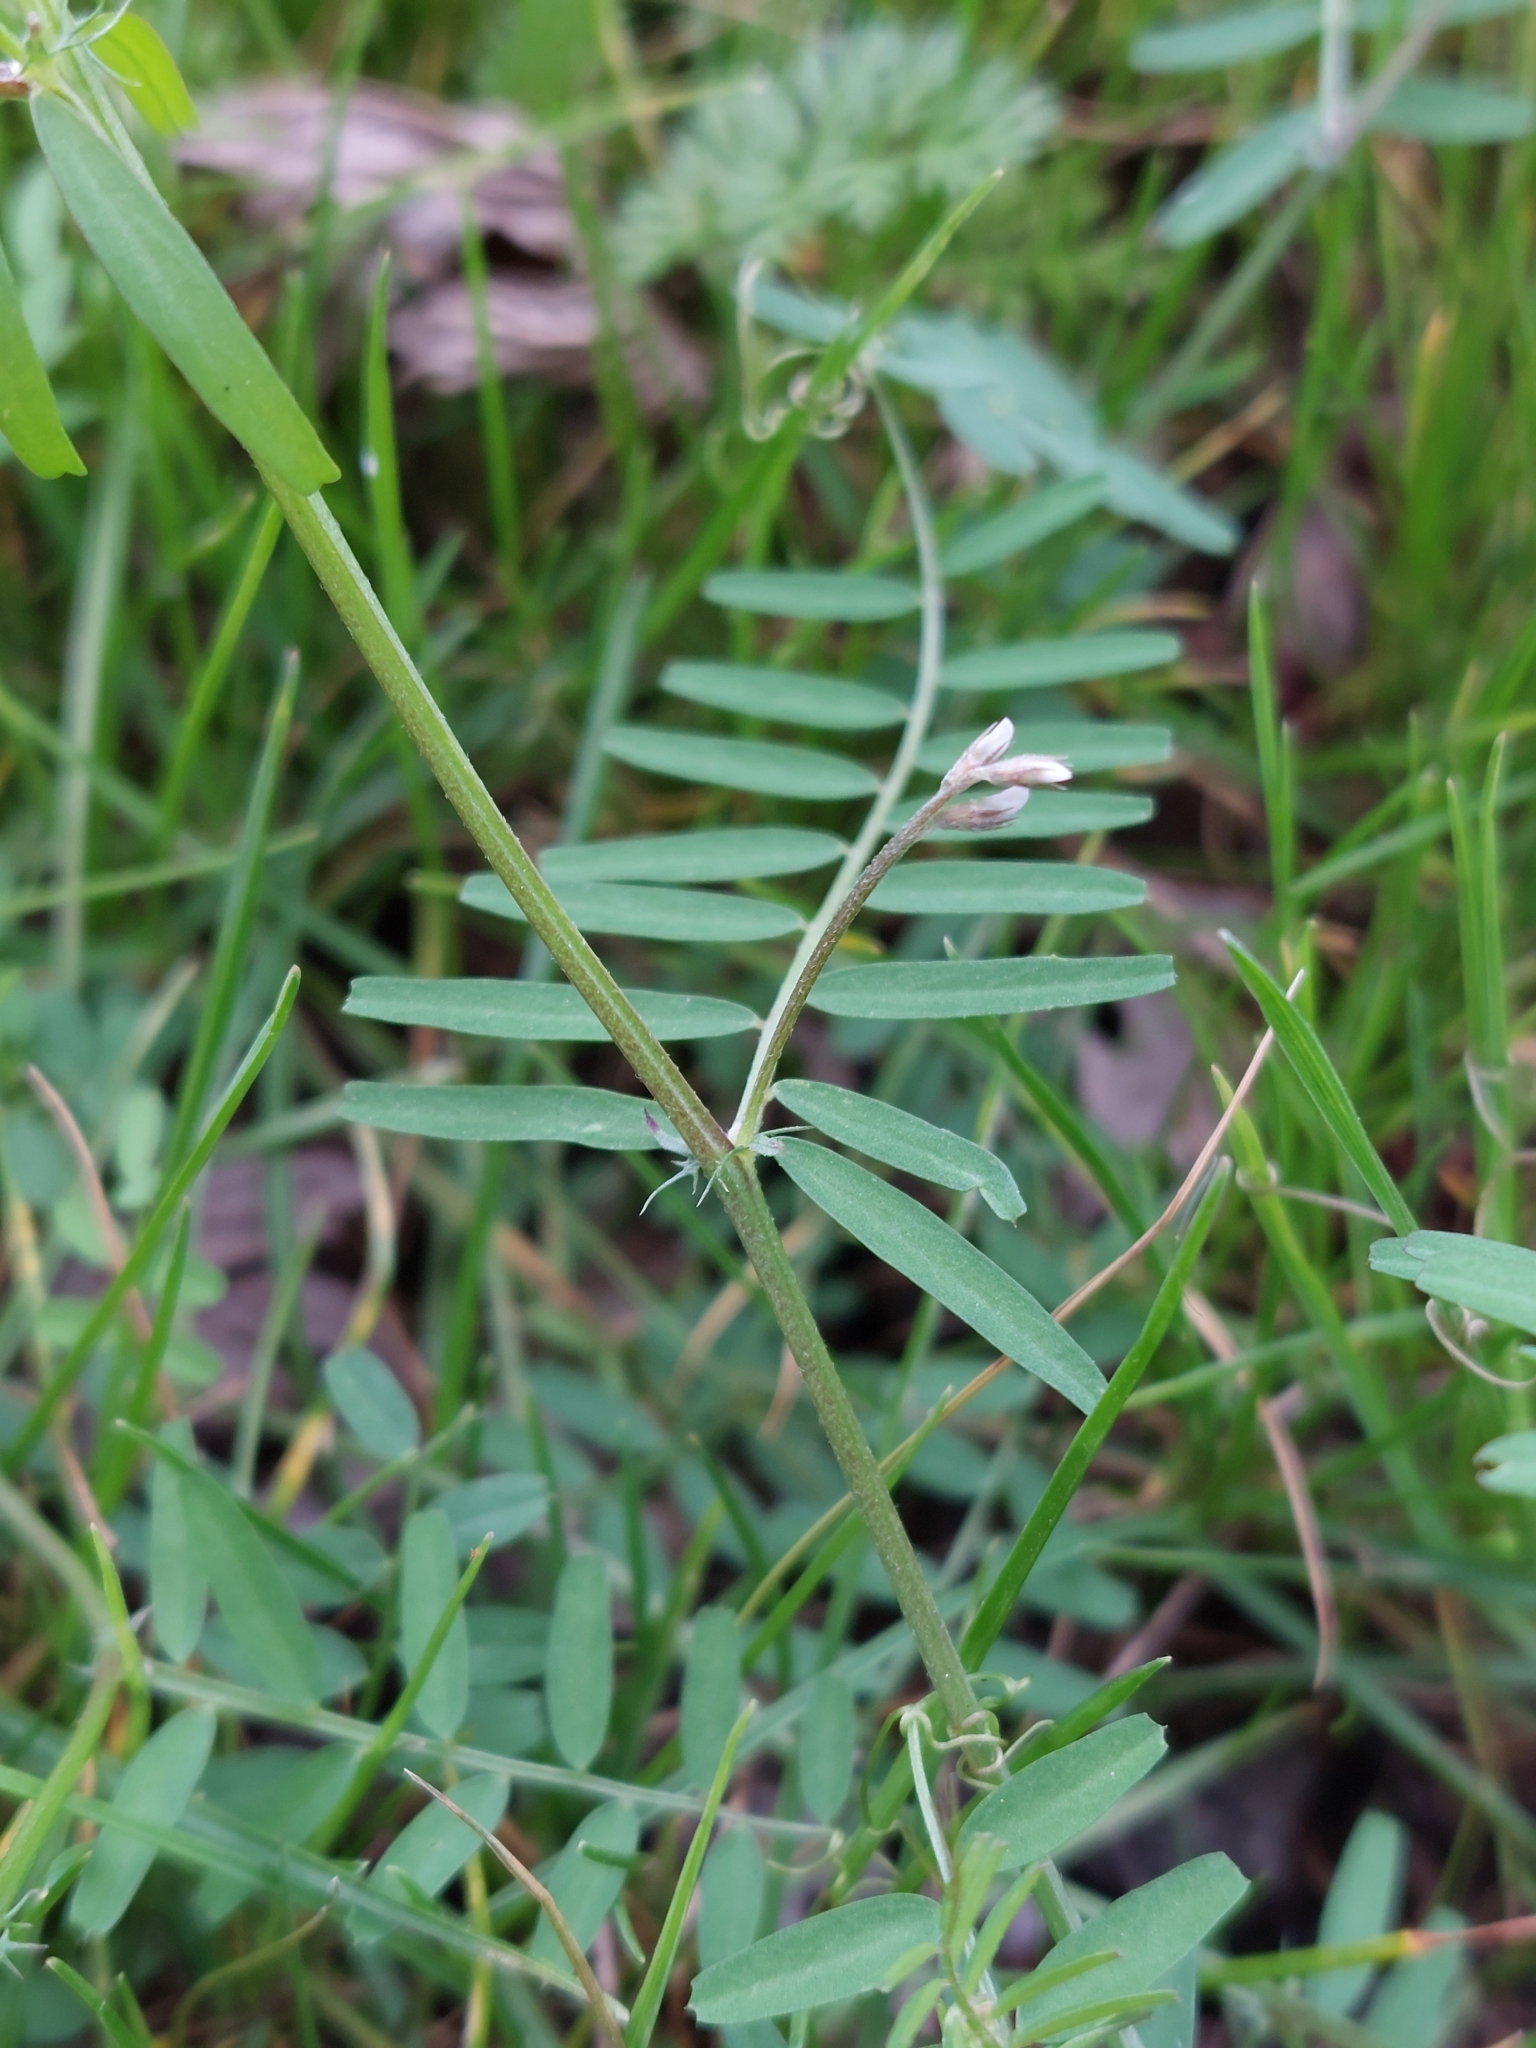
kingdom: Plantae
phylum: Tracheophyta
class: Magnoliopsida
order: Fabales
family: Fabaceae
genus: Vicia
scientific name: Vicia hirsuta
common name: Tiny vetch
